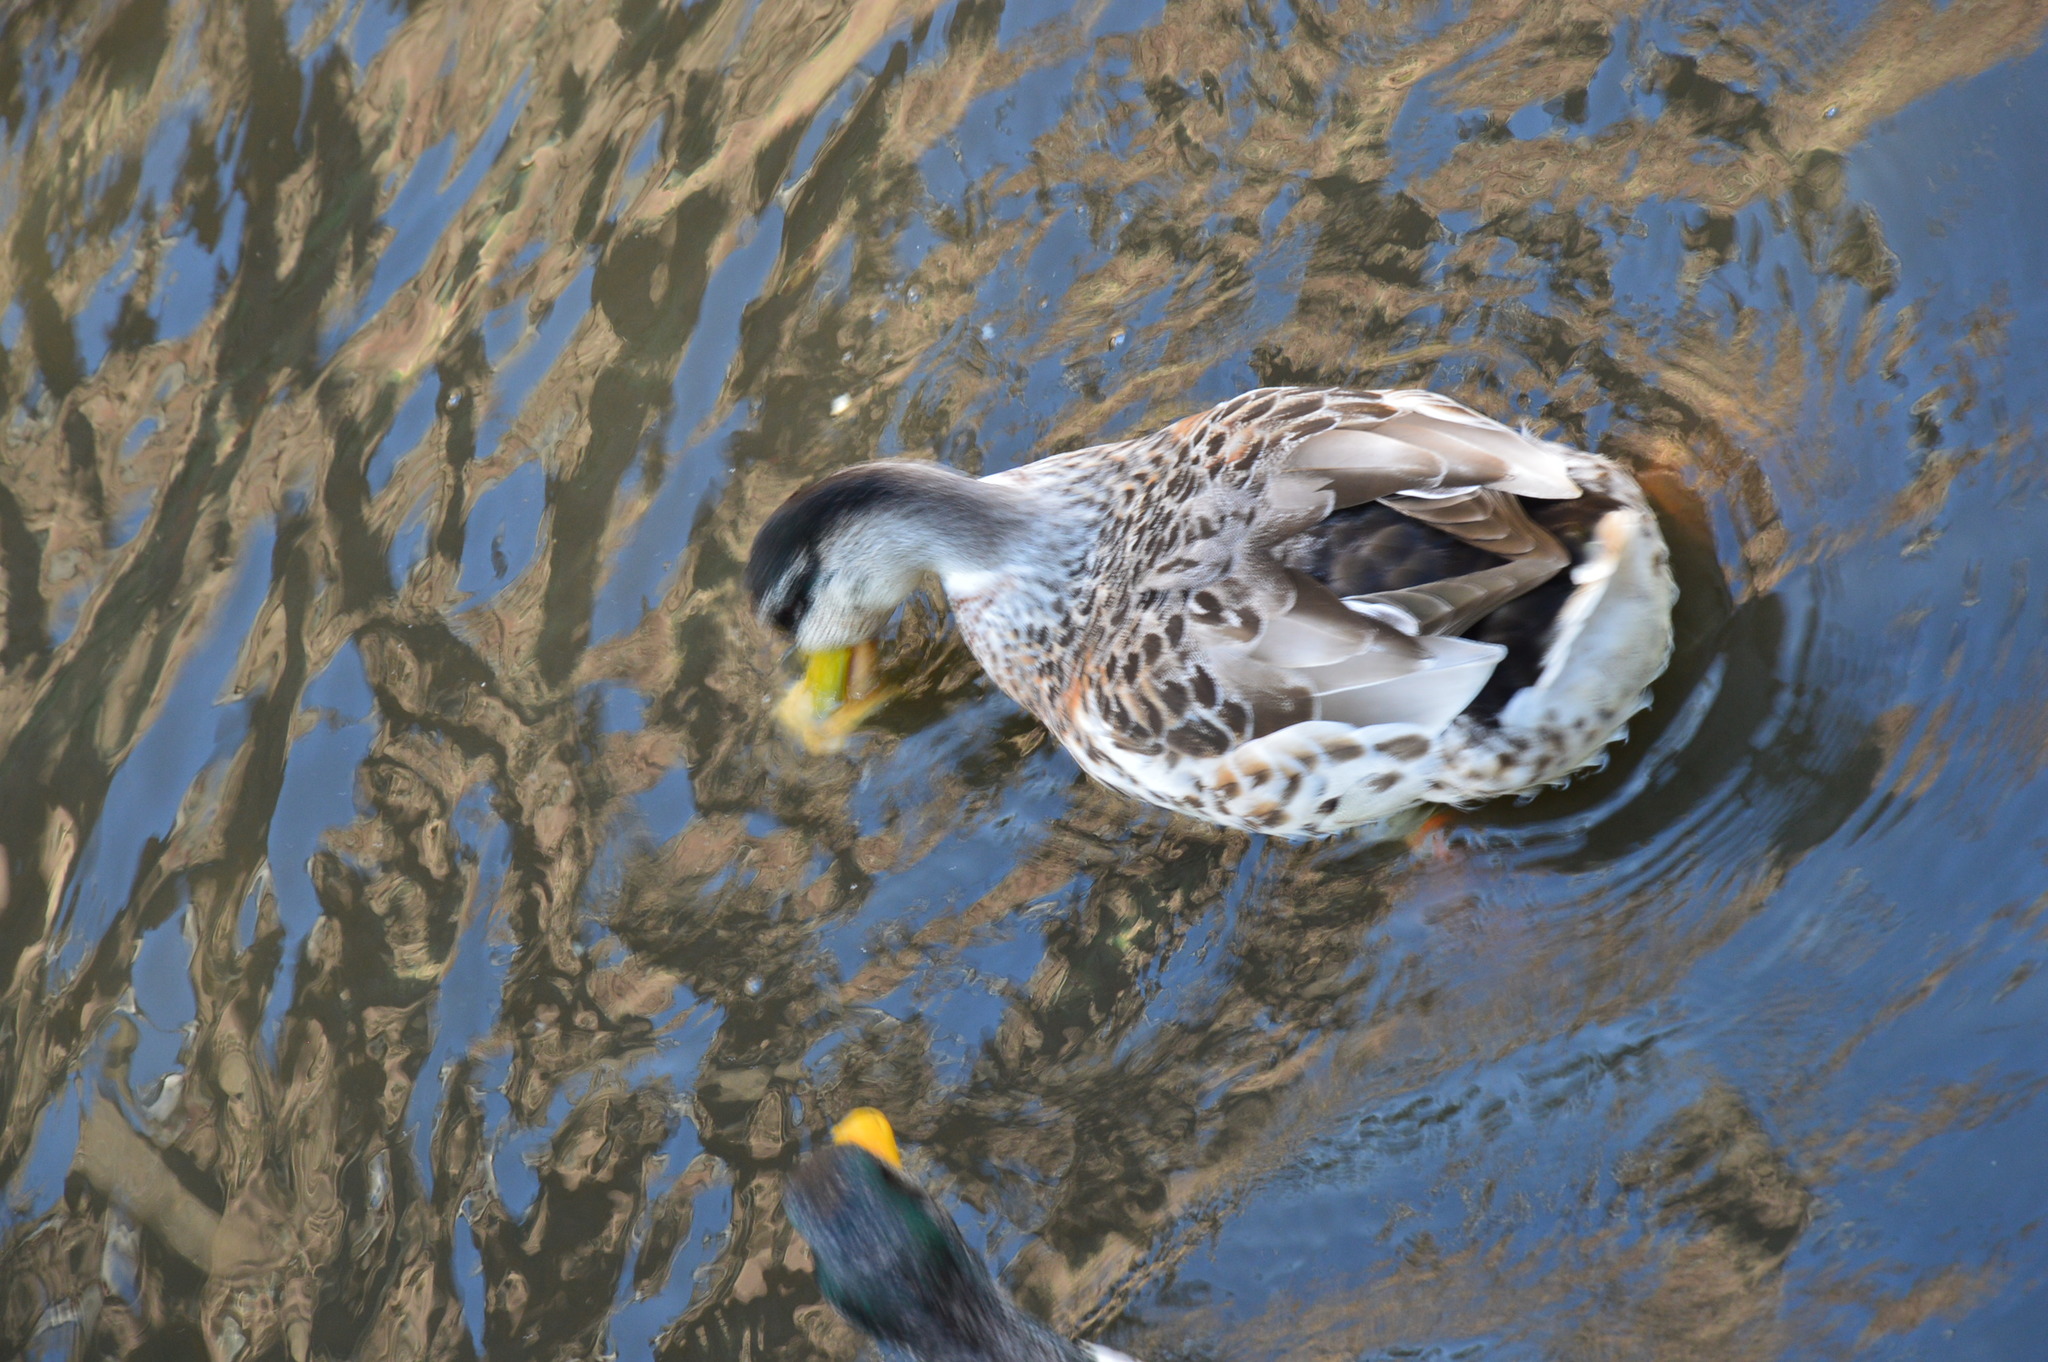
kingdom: Animalia
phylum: Chordata
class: Aves
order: Anseriformes
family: Anatidae
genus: Anas
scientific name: Anas platyrhynchos
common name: Mallard
